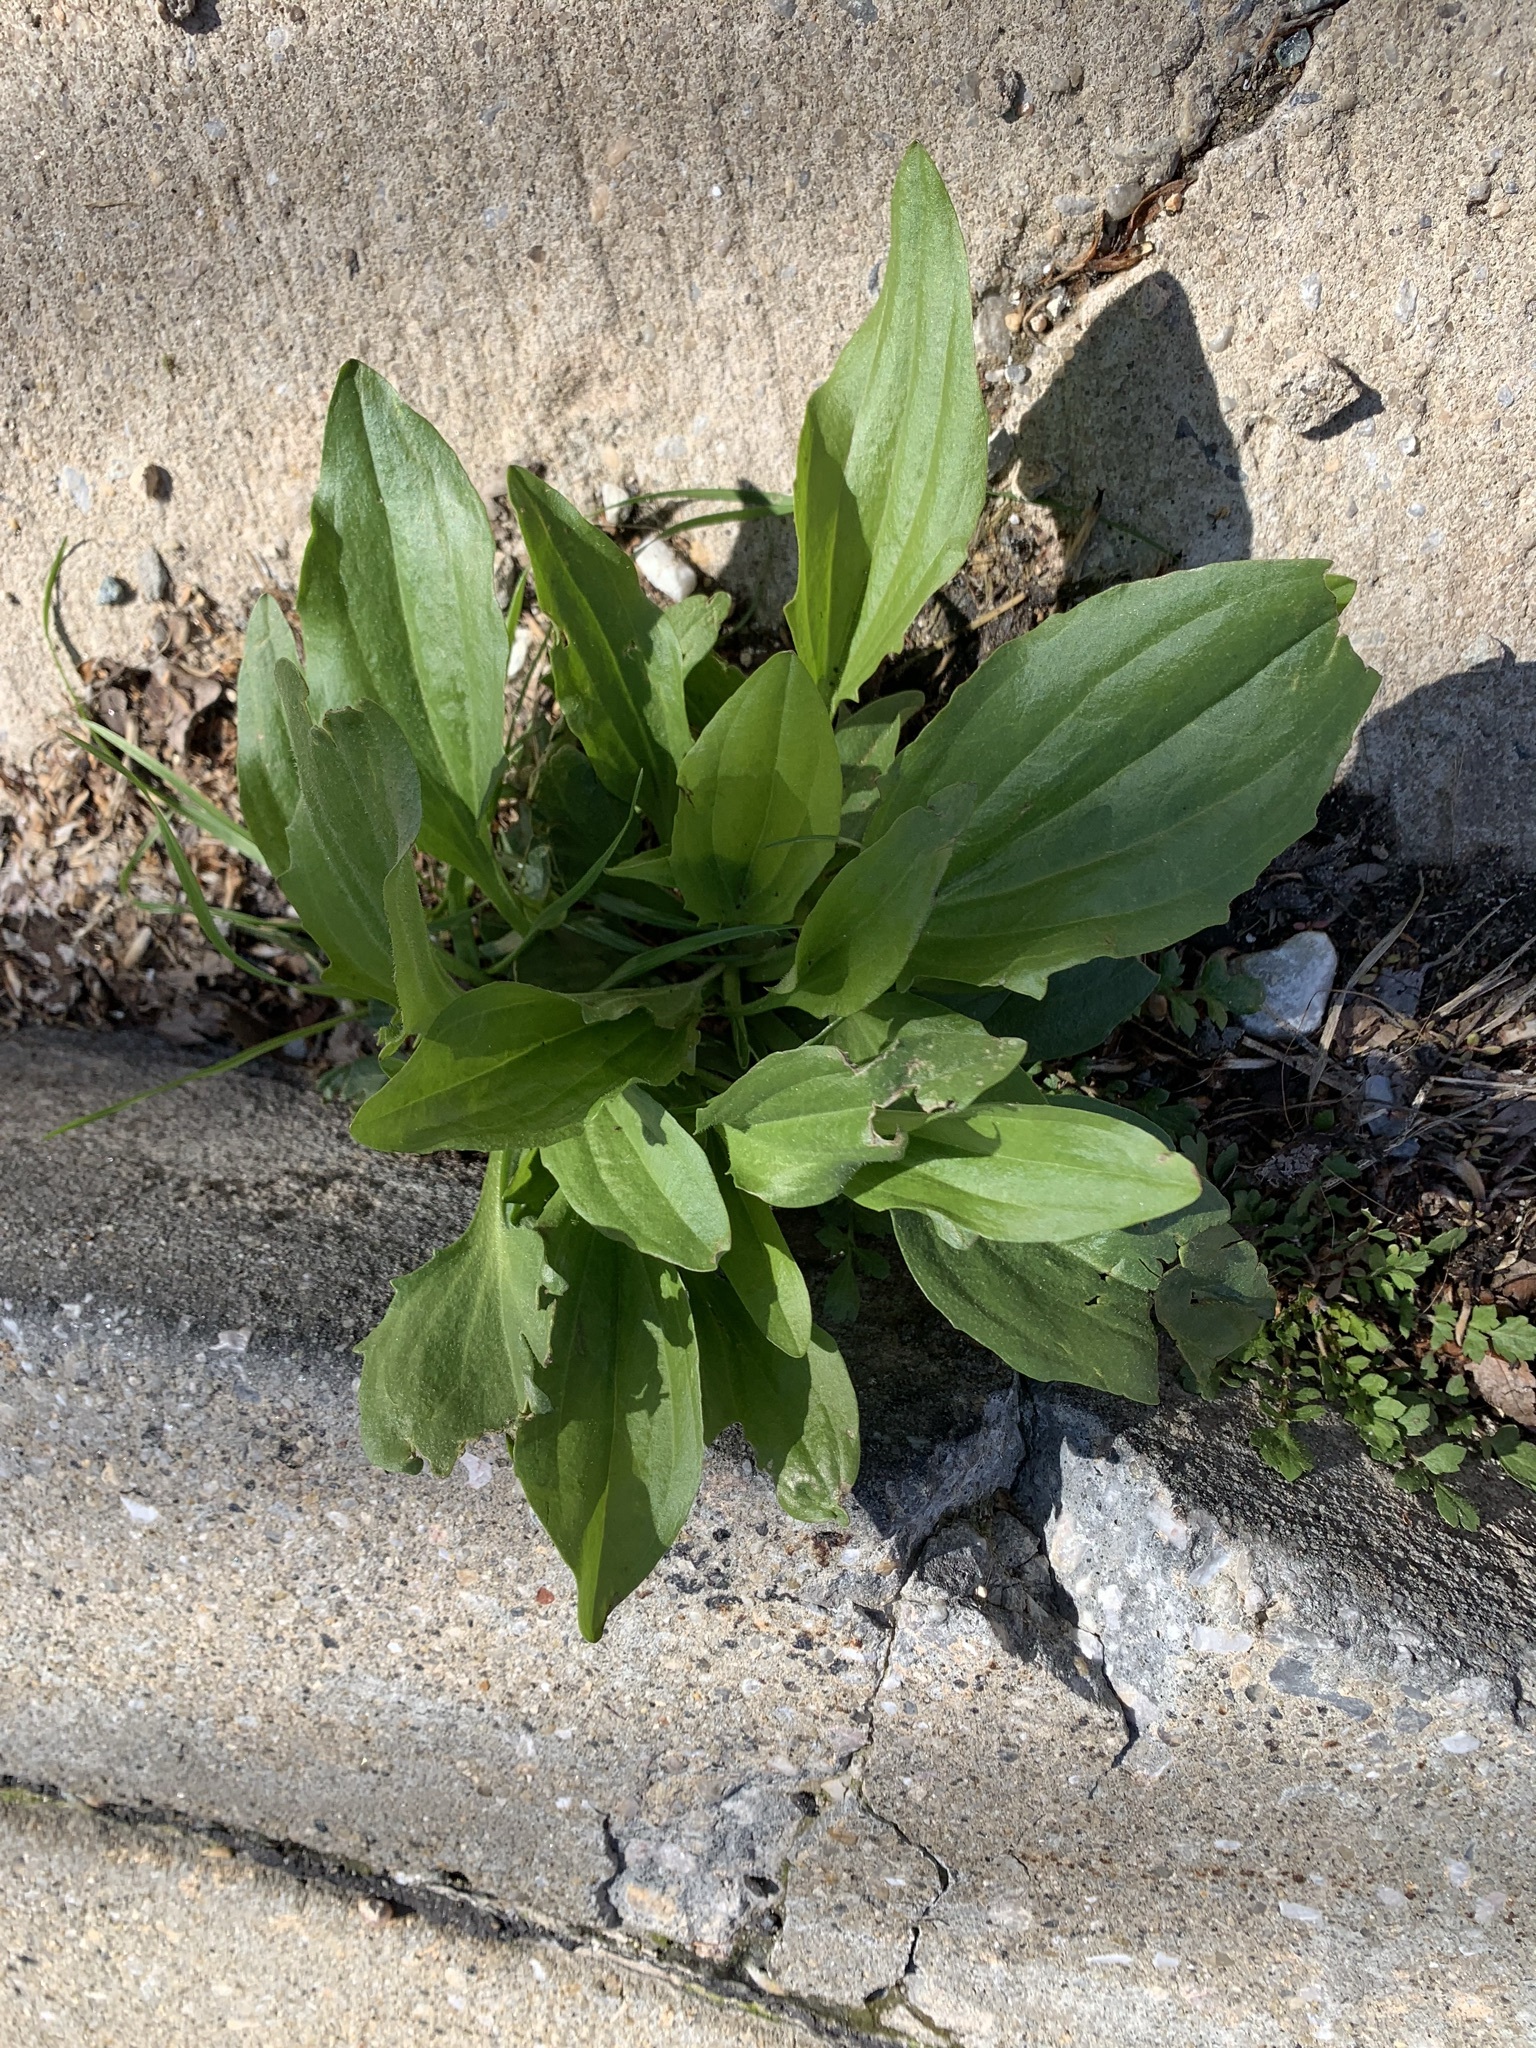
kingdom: Plantae
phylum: Tracheophyta
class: Magnoliopsida
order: Lamiales
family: Plantaginaceae
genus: Plantago
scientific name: Plantago major
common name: Common plantain
